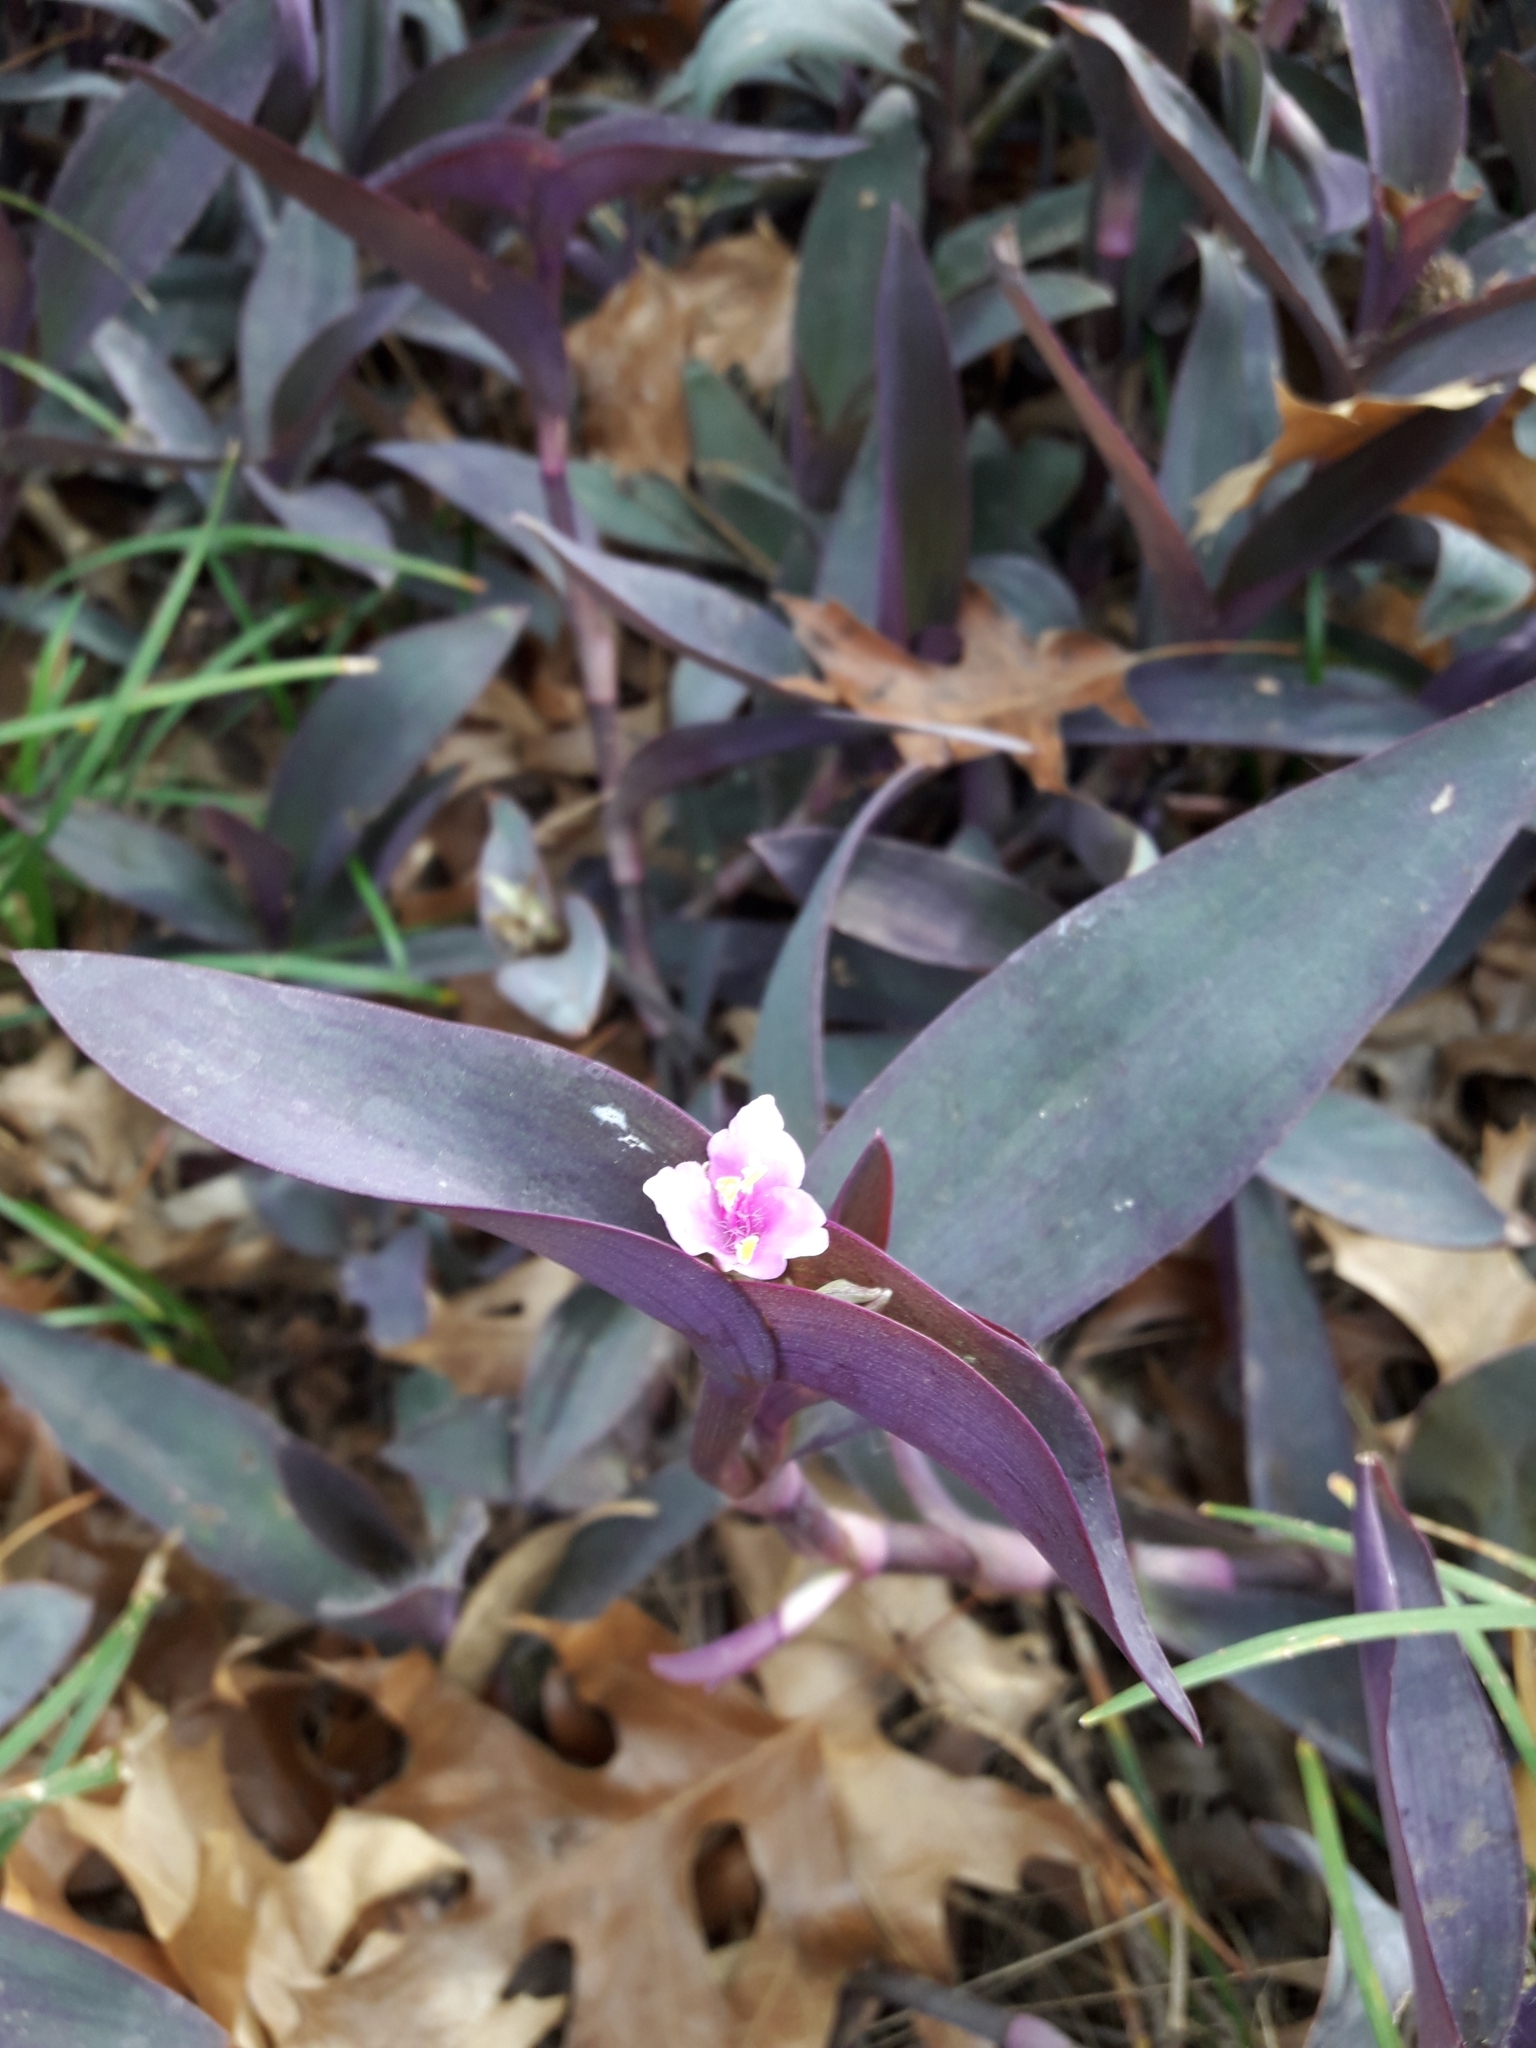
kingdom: Plantae
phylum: Tracheophyta
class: Liliopsida
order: Commelinales
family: Commelinaceae
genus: Tradescantia
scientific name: Tradescantia pallida
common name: Purpleheart
